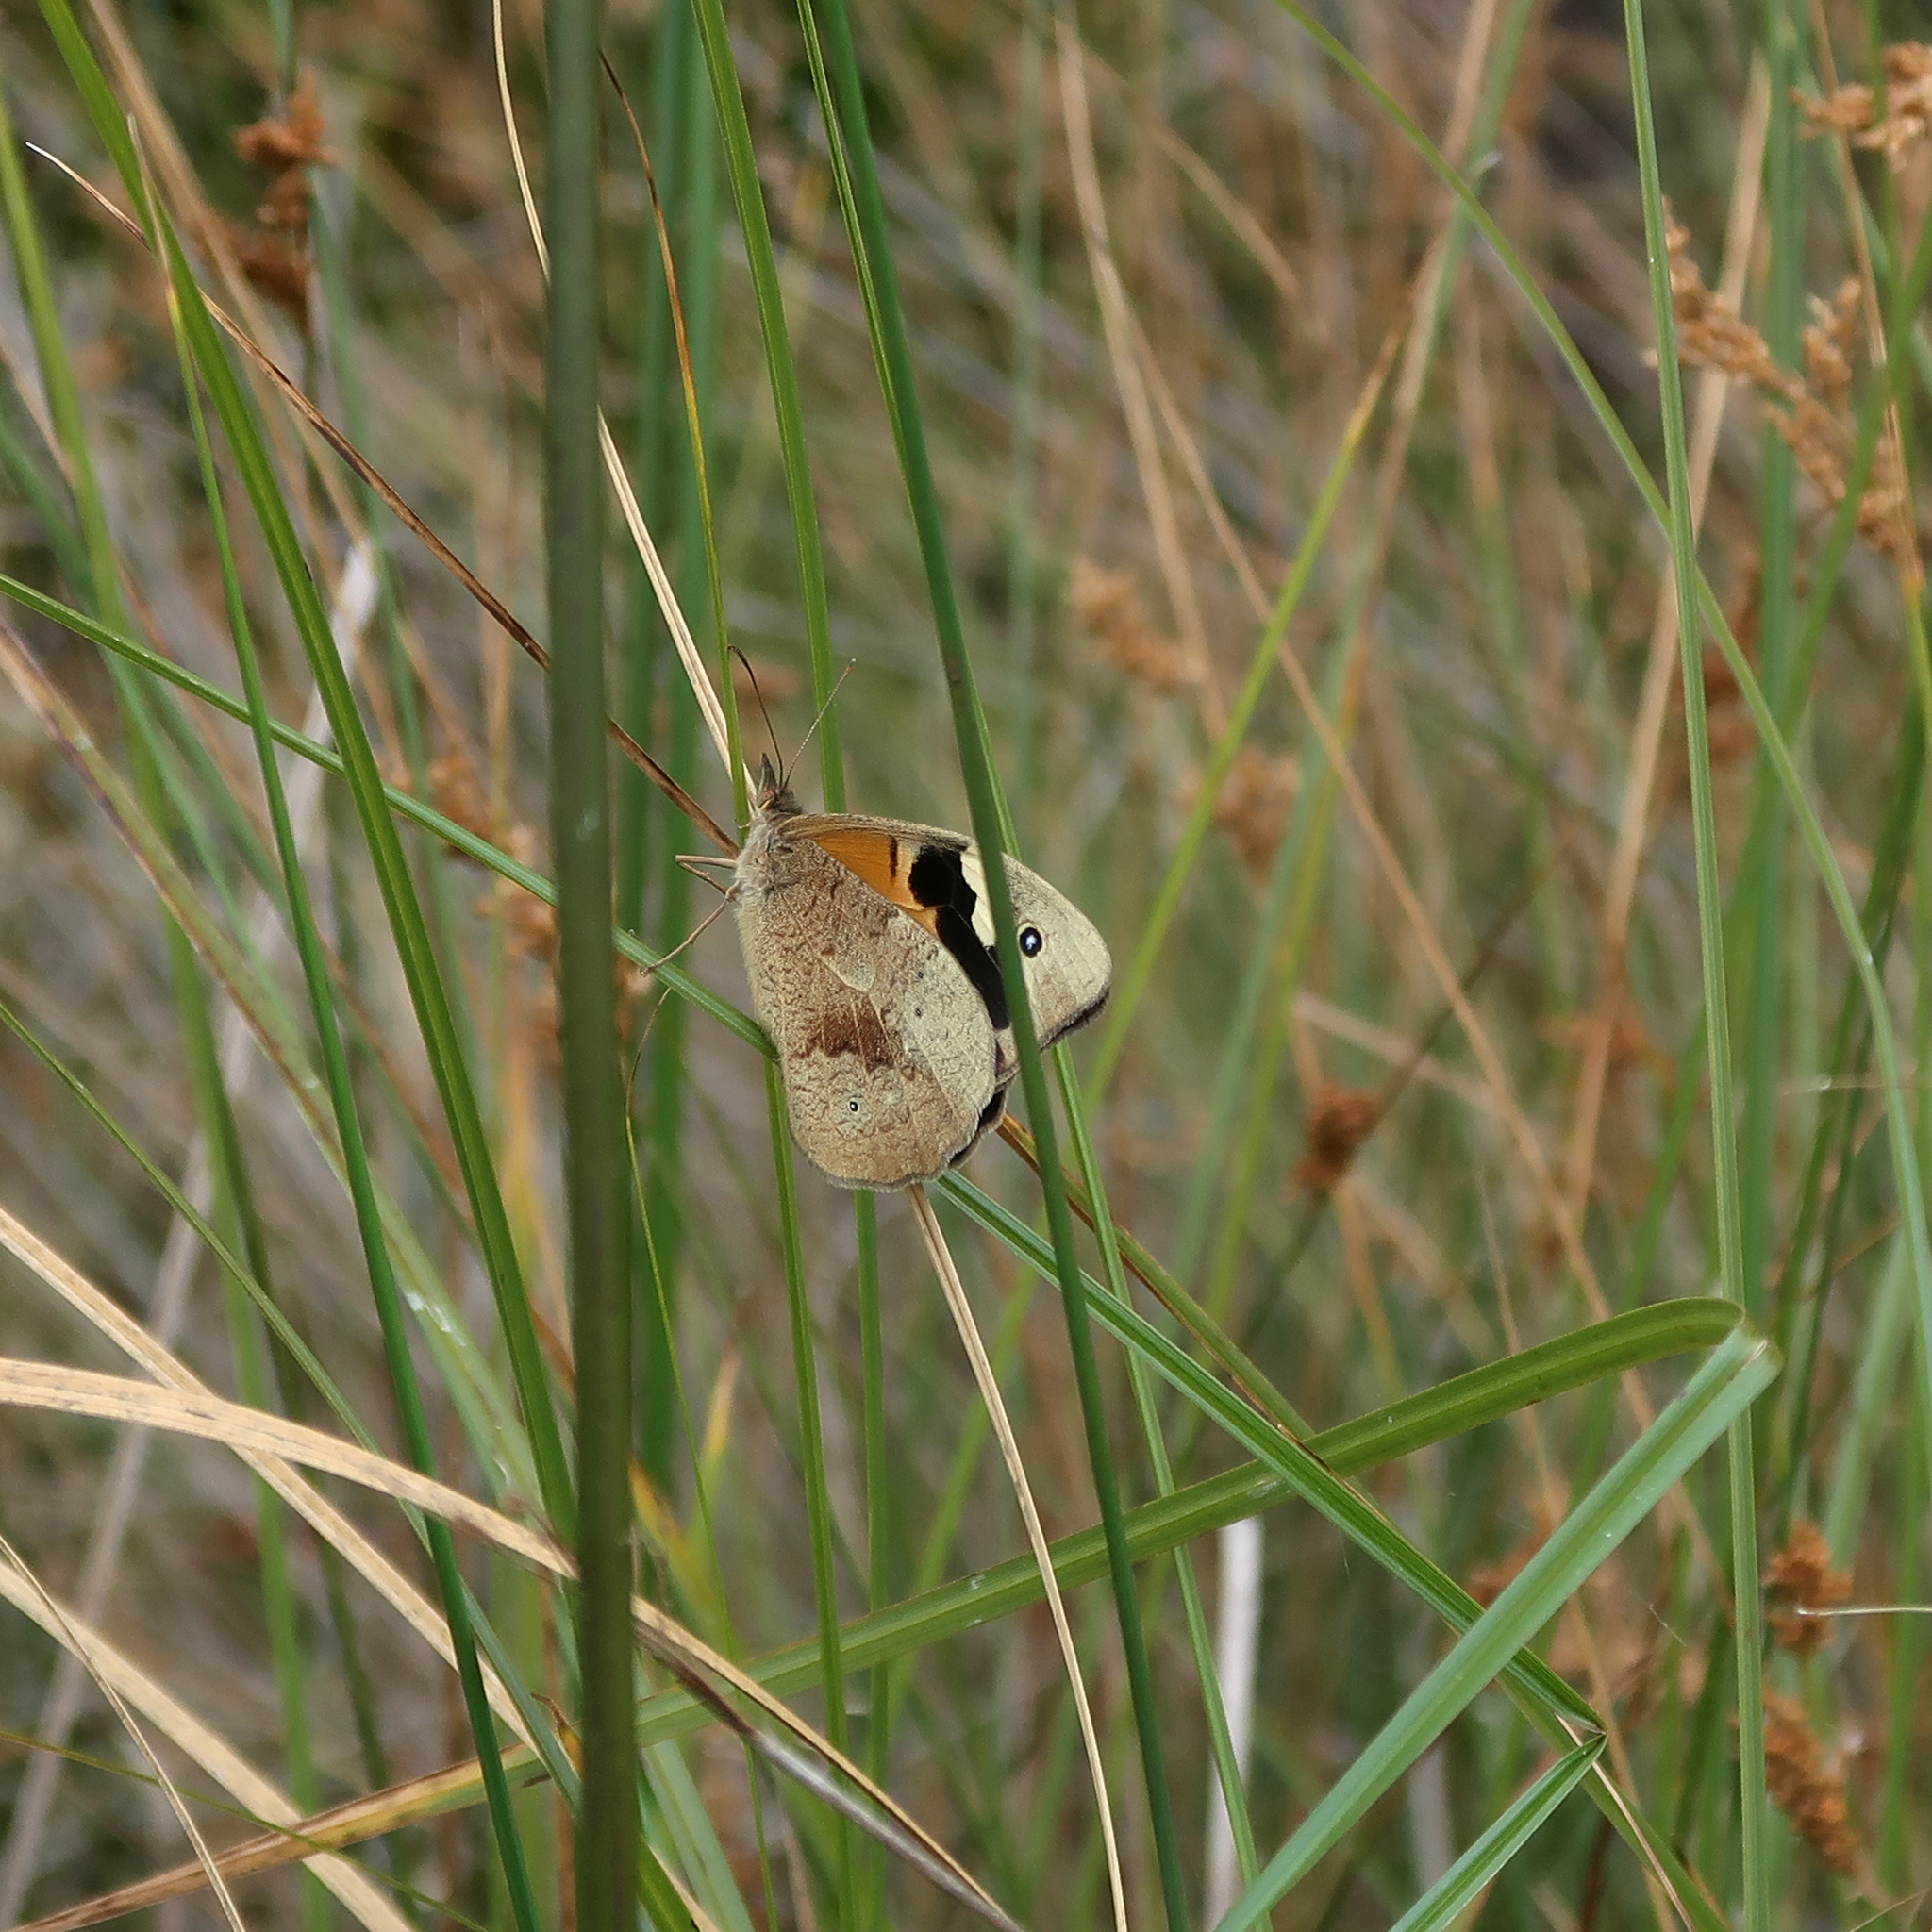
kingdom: Animalia
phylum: Arthropoda
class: Insecta
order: Lepidoptera
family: Nymphalidae
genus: Heteronympha
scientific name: Heteronympha merope
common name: Common brown
